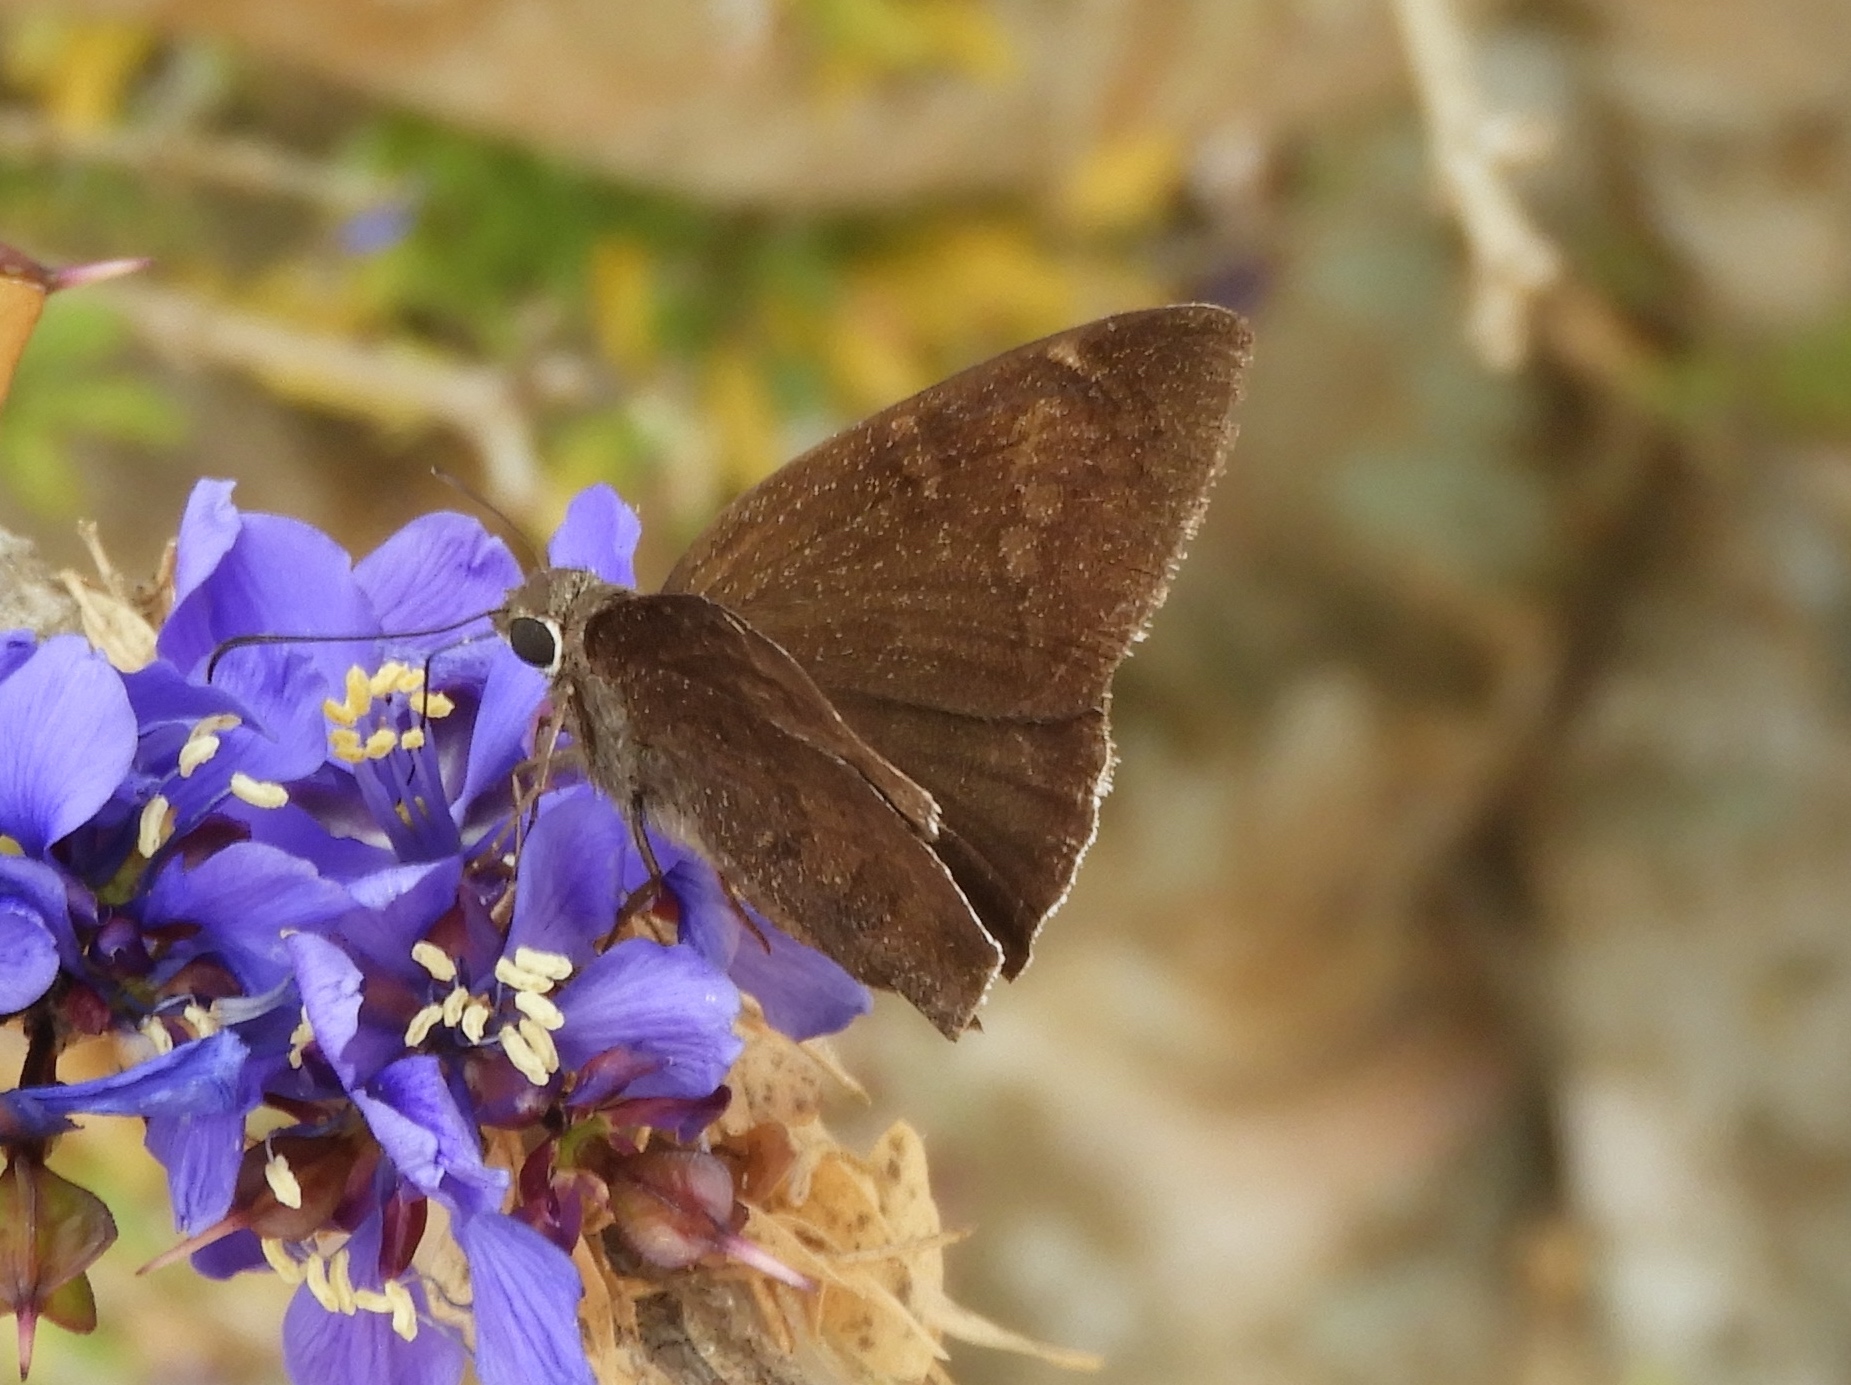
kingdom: Animalia
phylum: Arthropoda
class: Insecta
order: Lepidoptera
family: Hesperiidae
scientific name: Hesperiidae
